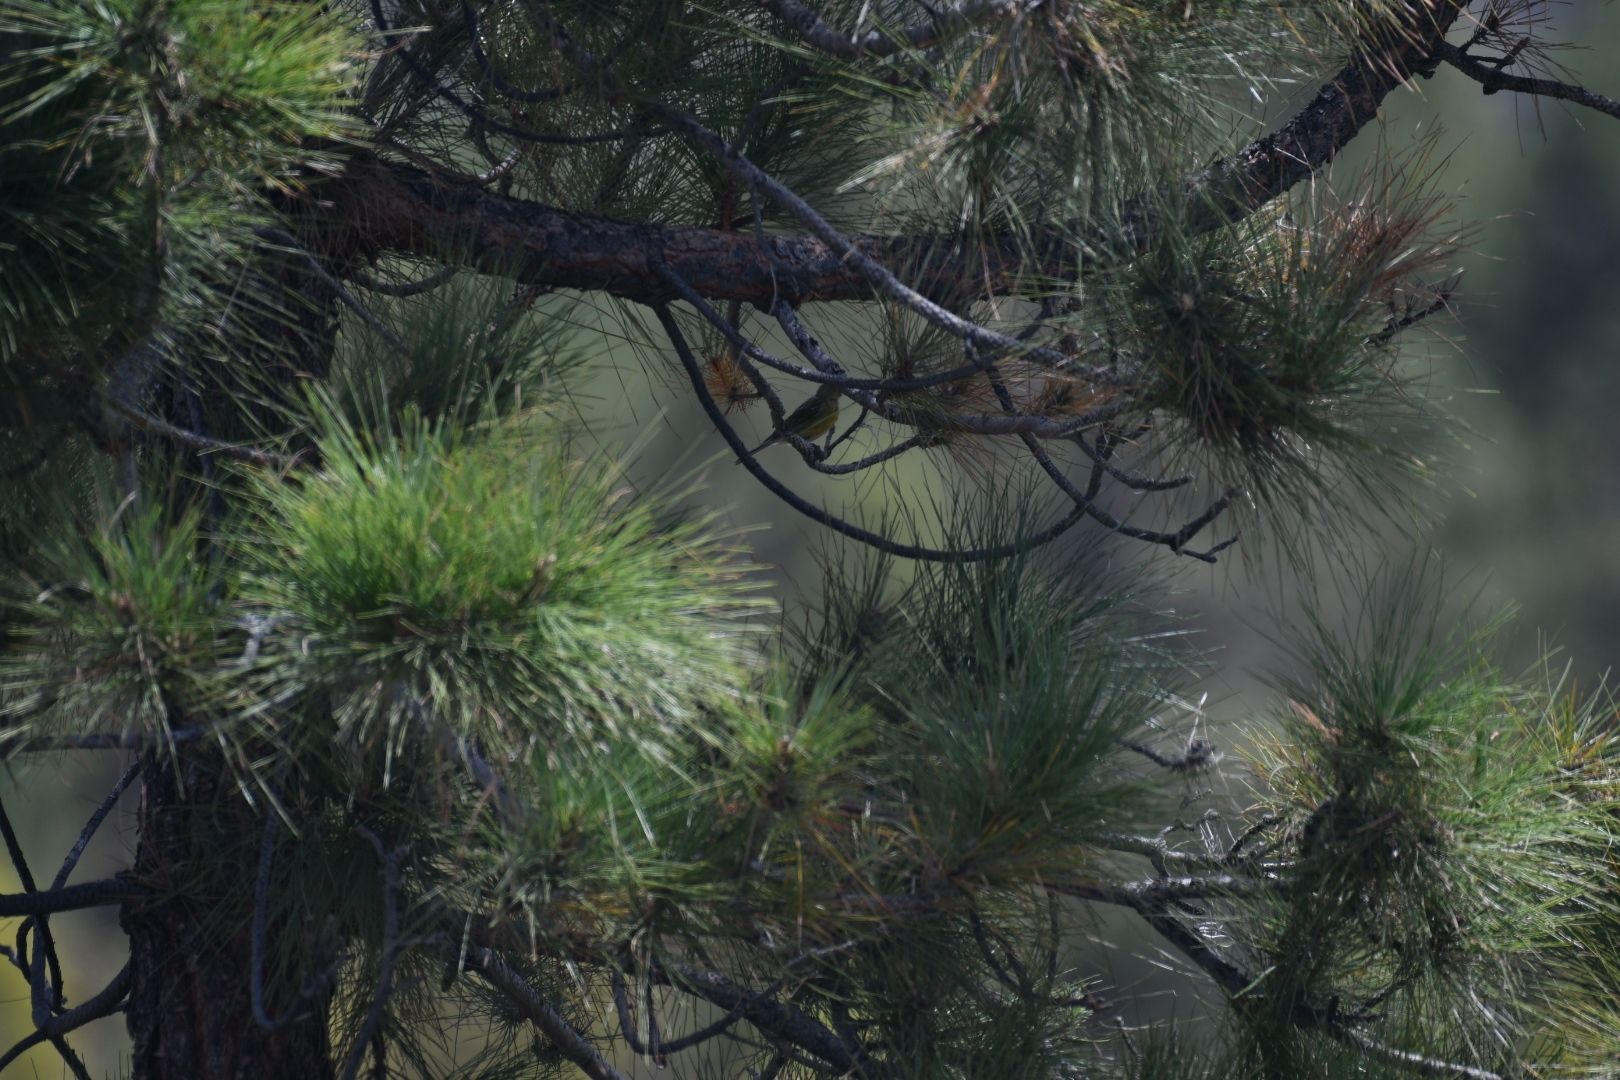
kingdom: Animalia
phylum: Chordata
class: Aves
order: Passeriformes
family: Fringillidae
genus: Serinus
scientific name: Serinus canaria
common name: Atlantic canary
